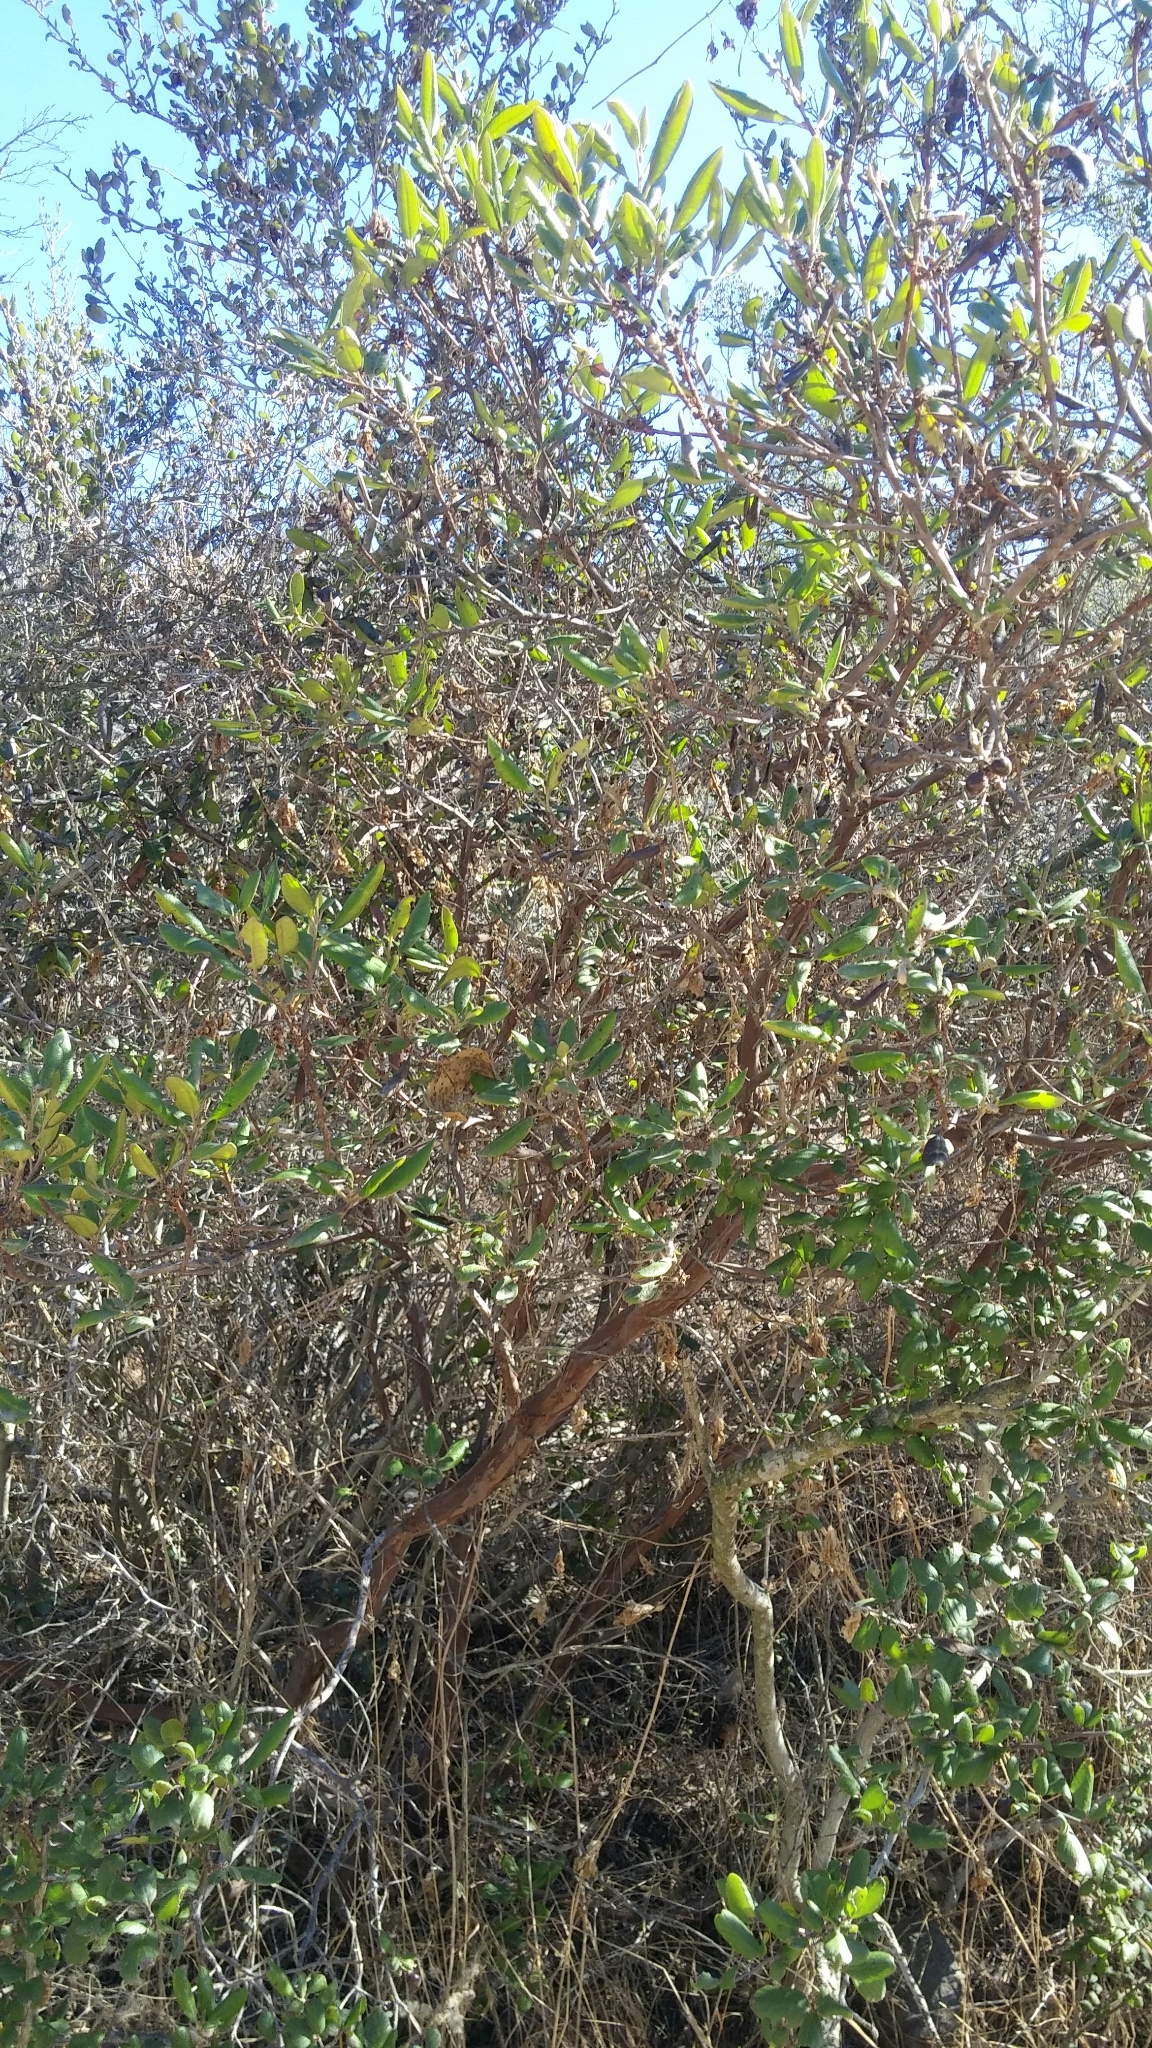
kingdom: Plantae
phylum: Tracheophyta
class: Magnoliopsida
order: Ericales
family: Ericaceae
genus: Arctostaphylos
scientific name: Arctostaphylos bicolor
